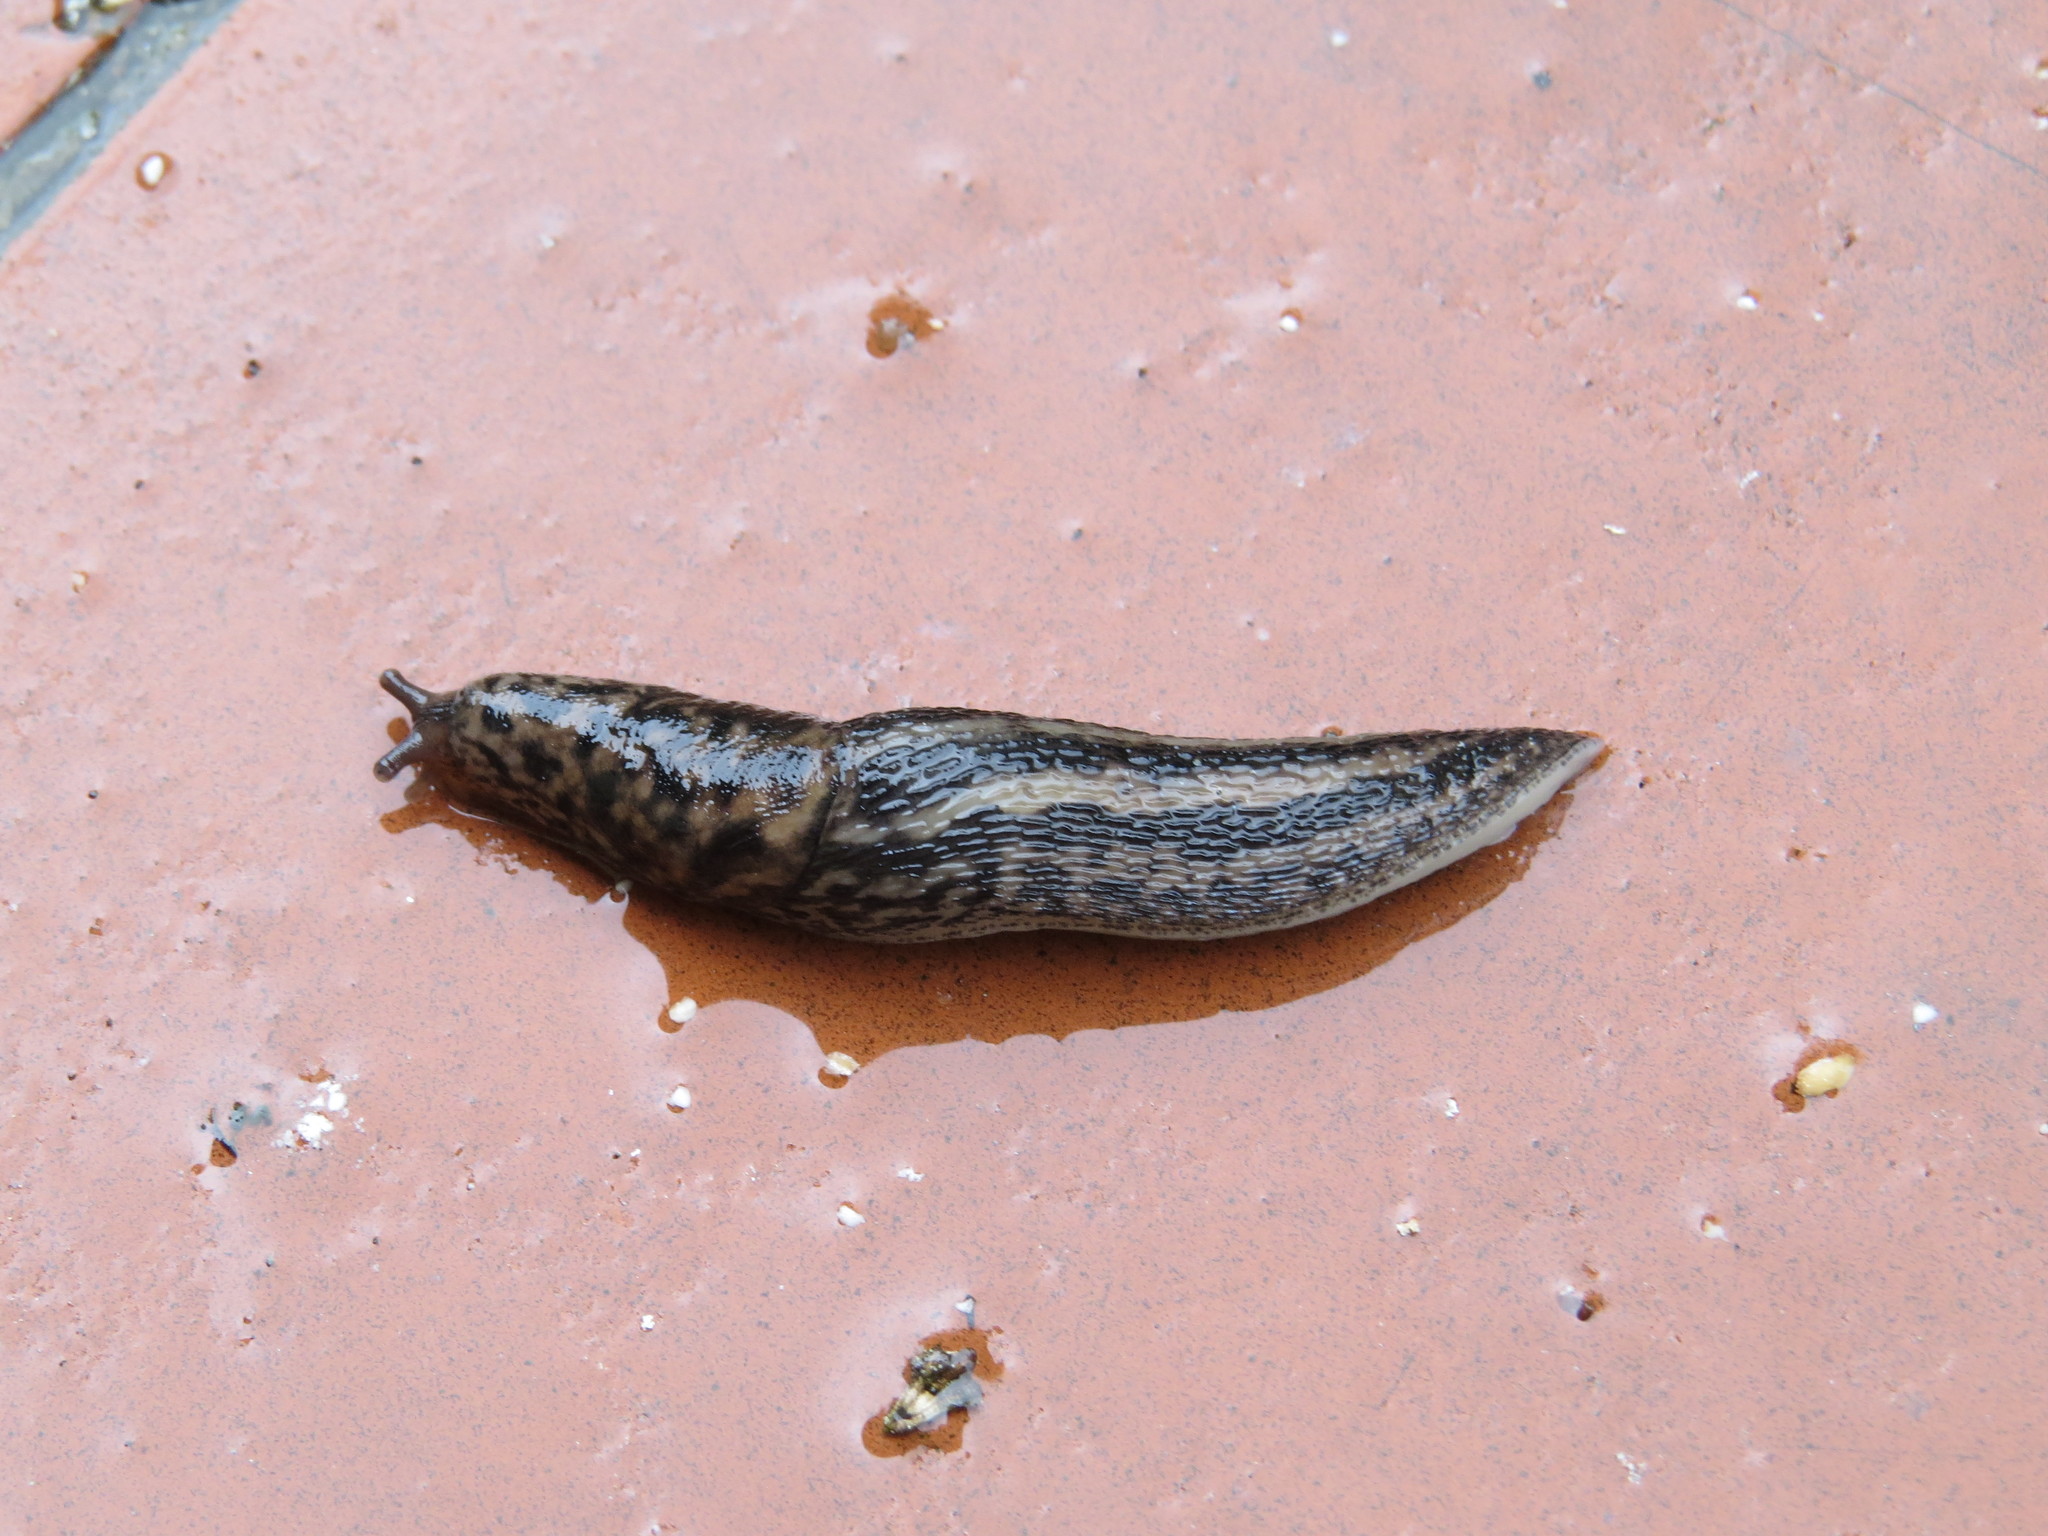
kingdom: Animalia
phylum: Mollusca
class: Gastropoda
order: Stylommatophora
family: Limacidae
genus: Limax
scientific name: Limax maximus
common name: Great grey slug
